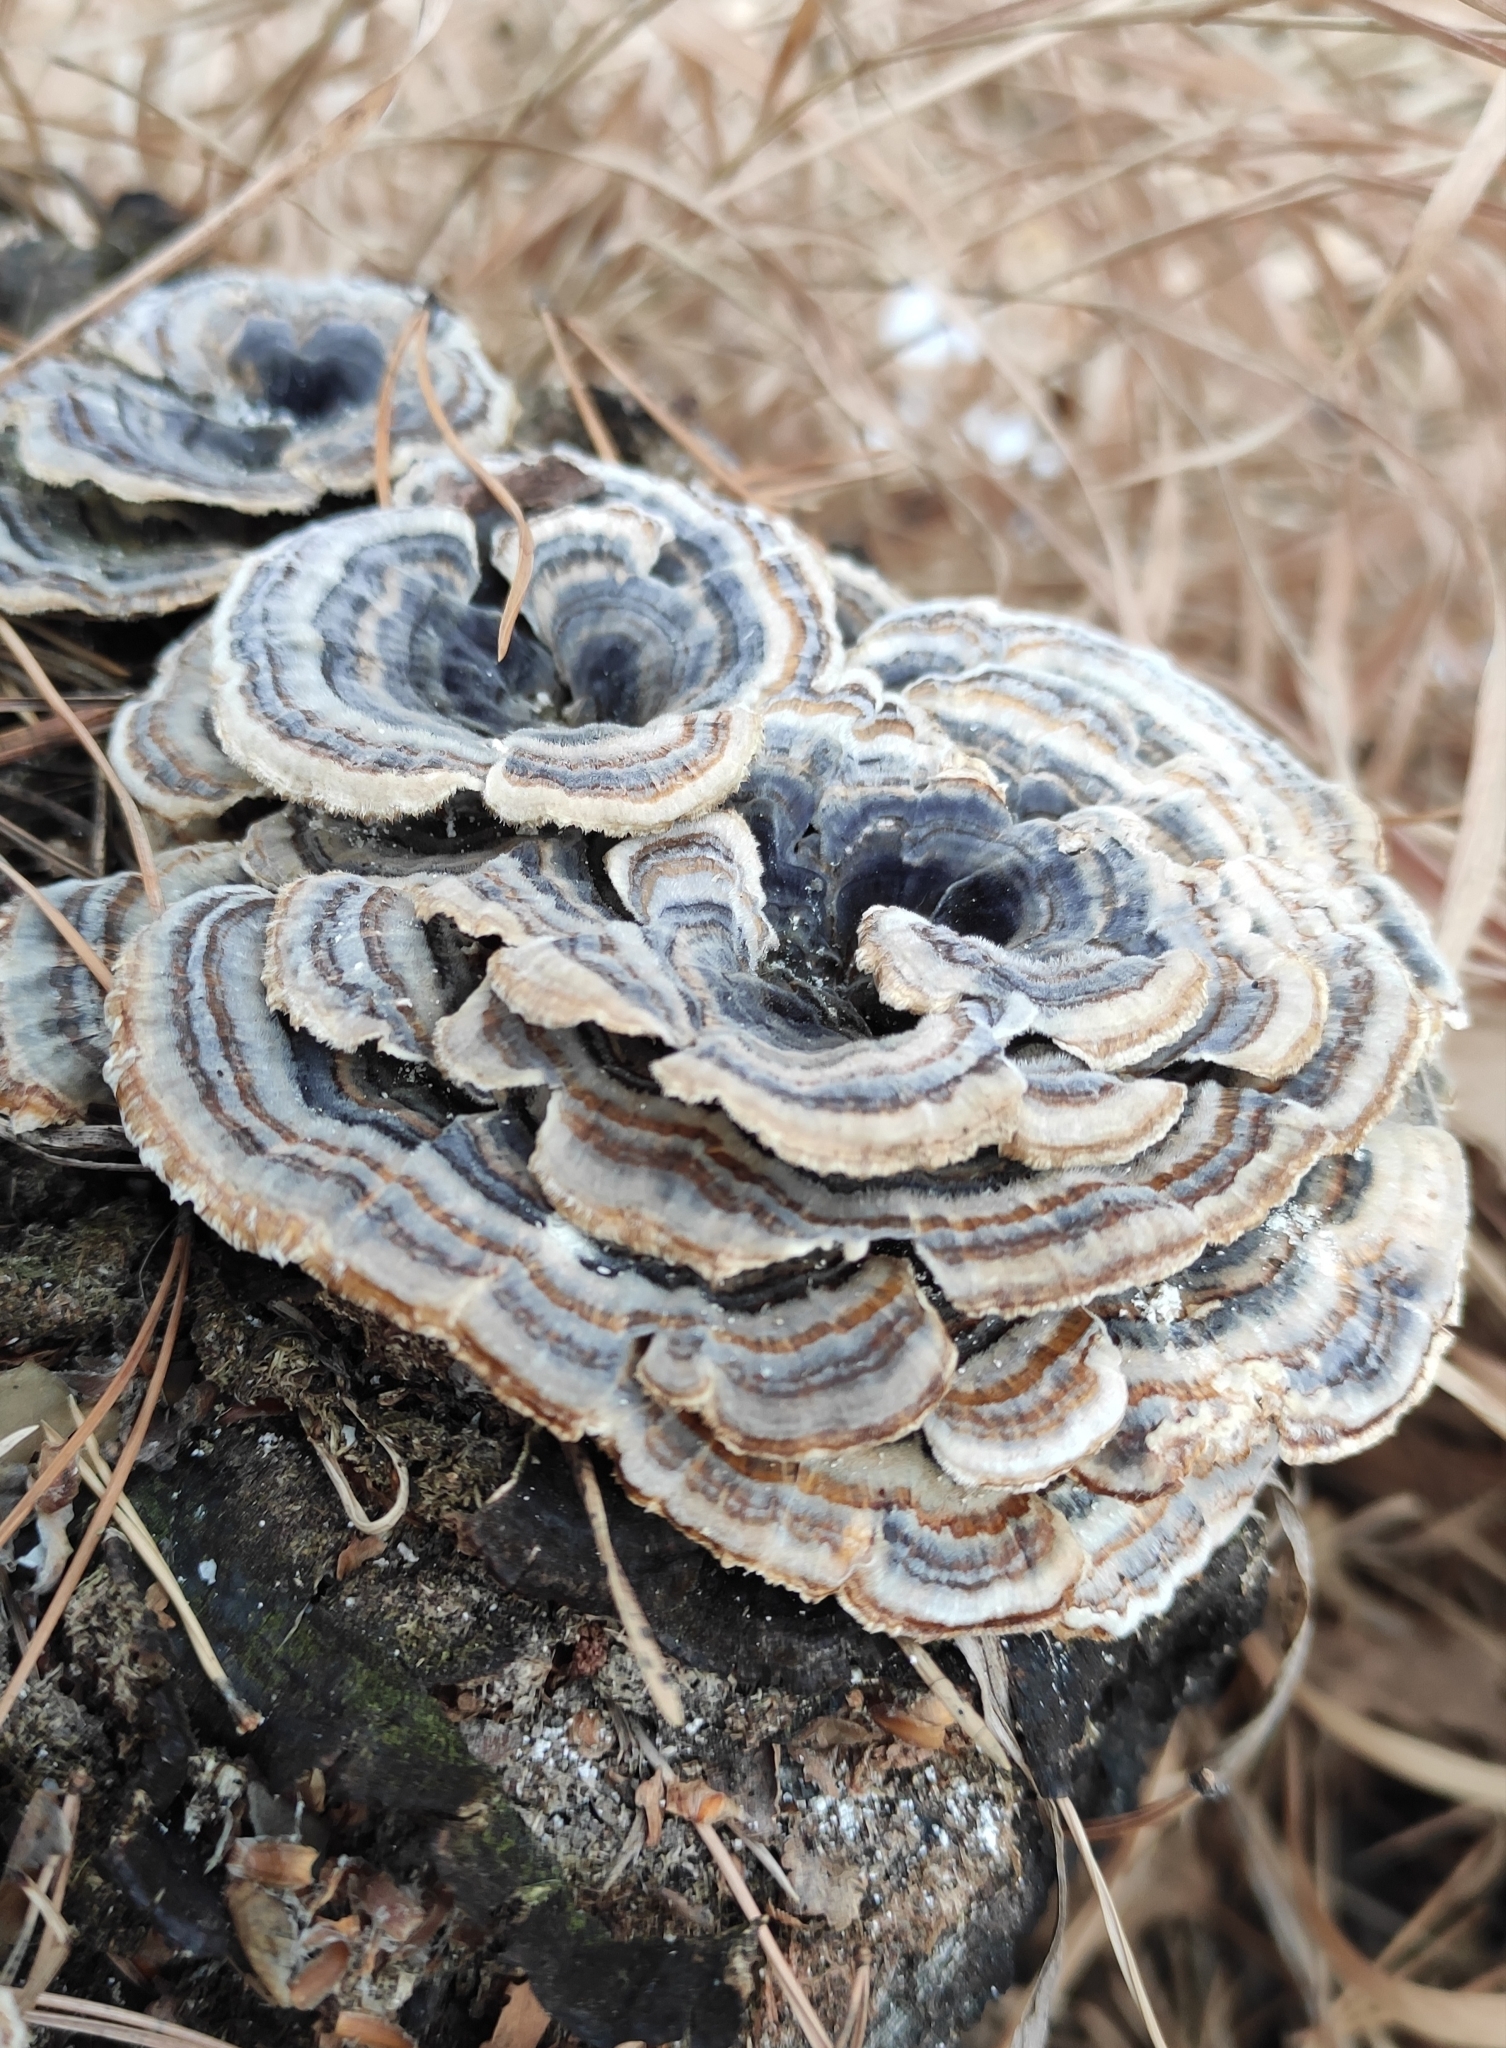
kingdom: Fungi
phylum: Basidiomycota
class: Agaricomycetes
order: Polyporales
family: Polyporaceae
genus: Trametes
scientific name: Trametes versicolor
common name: Turkeytail
